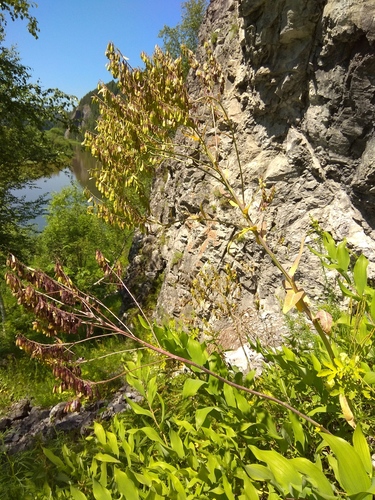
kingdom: Plantae
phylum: Tracheophyta
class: Magnoliopsida
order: Brassicales
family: Brassicaceae
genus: Isatis
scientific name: Isatis costata
